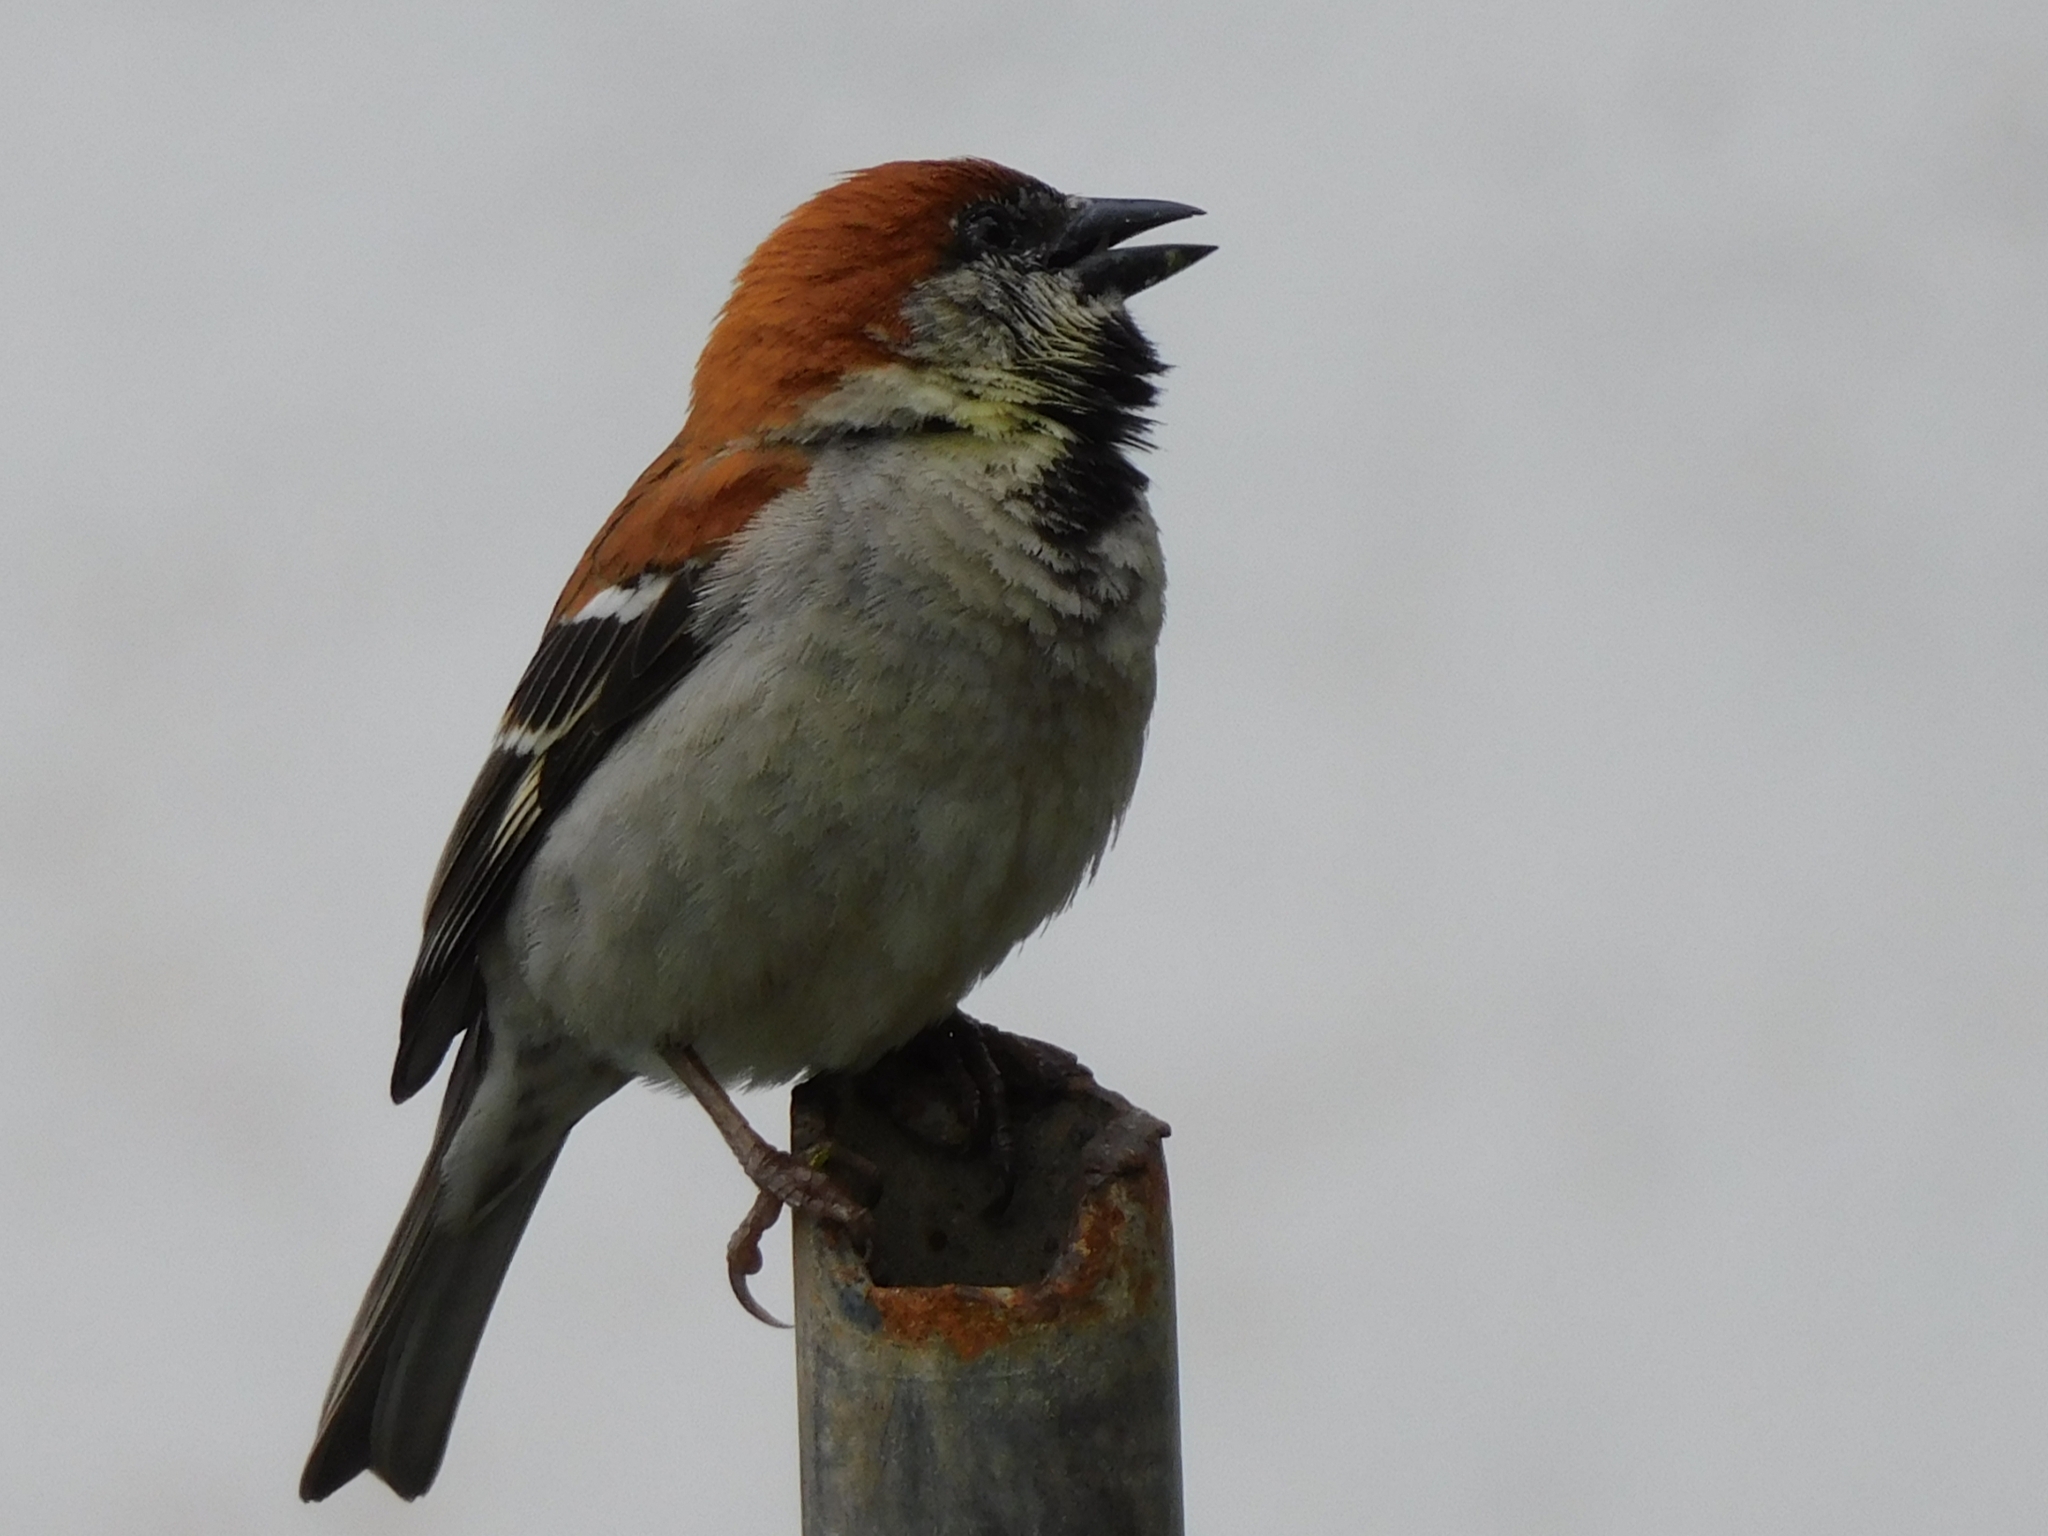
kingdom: Animalia
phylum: Chordata
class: Aves
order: Passeriformes
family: Passeridae
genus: Passer
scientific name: Passer cinnamomeus
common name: Russet sparrow
